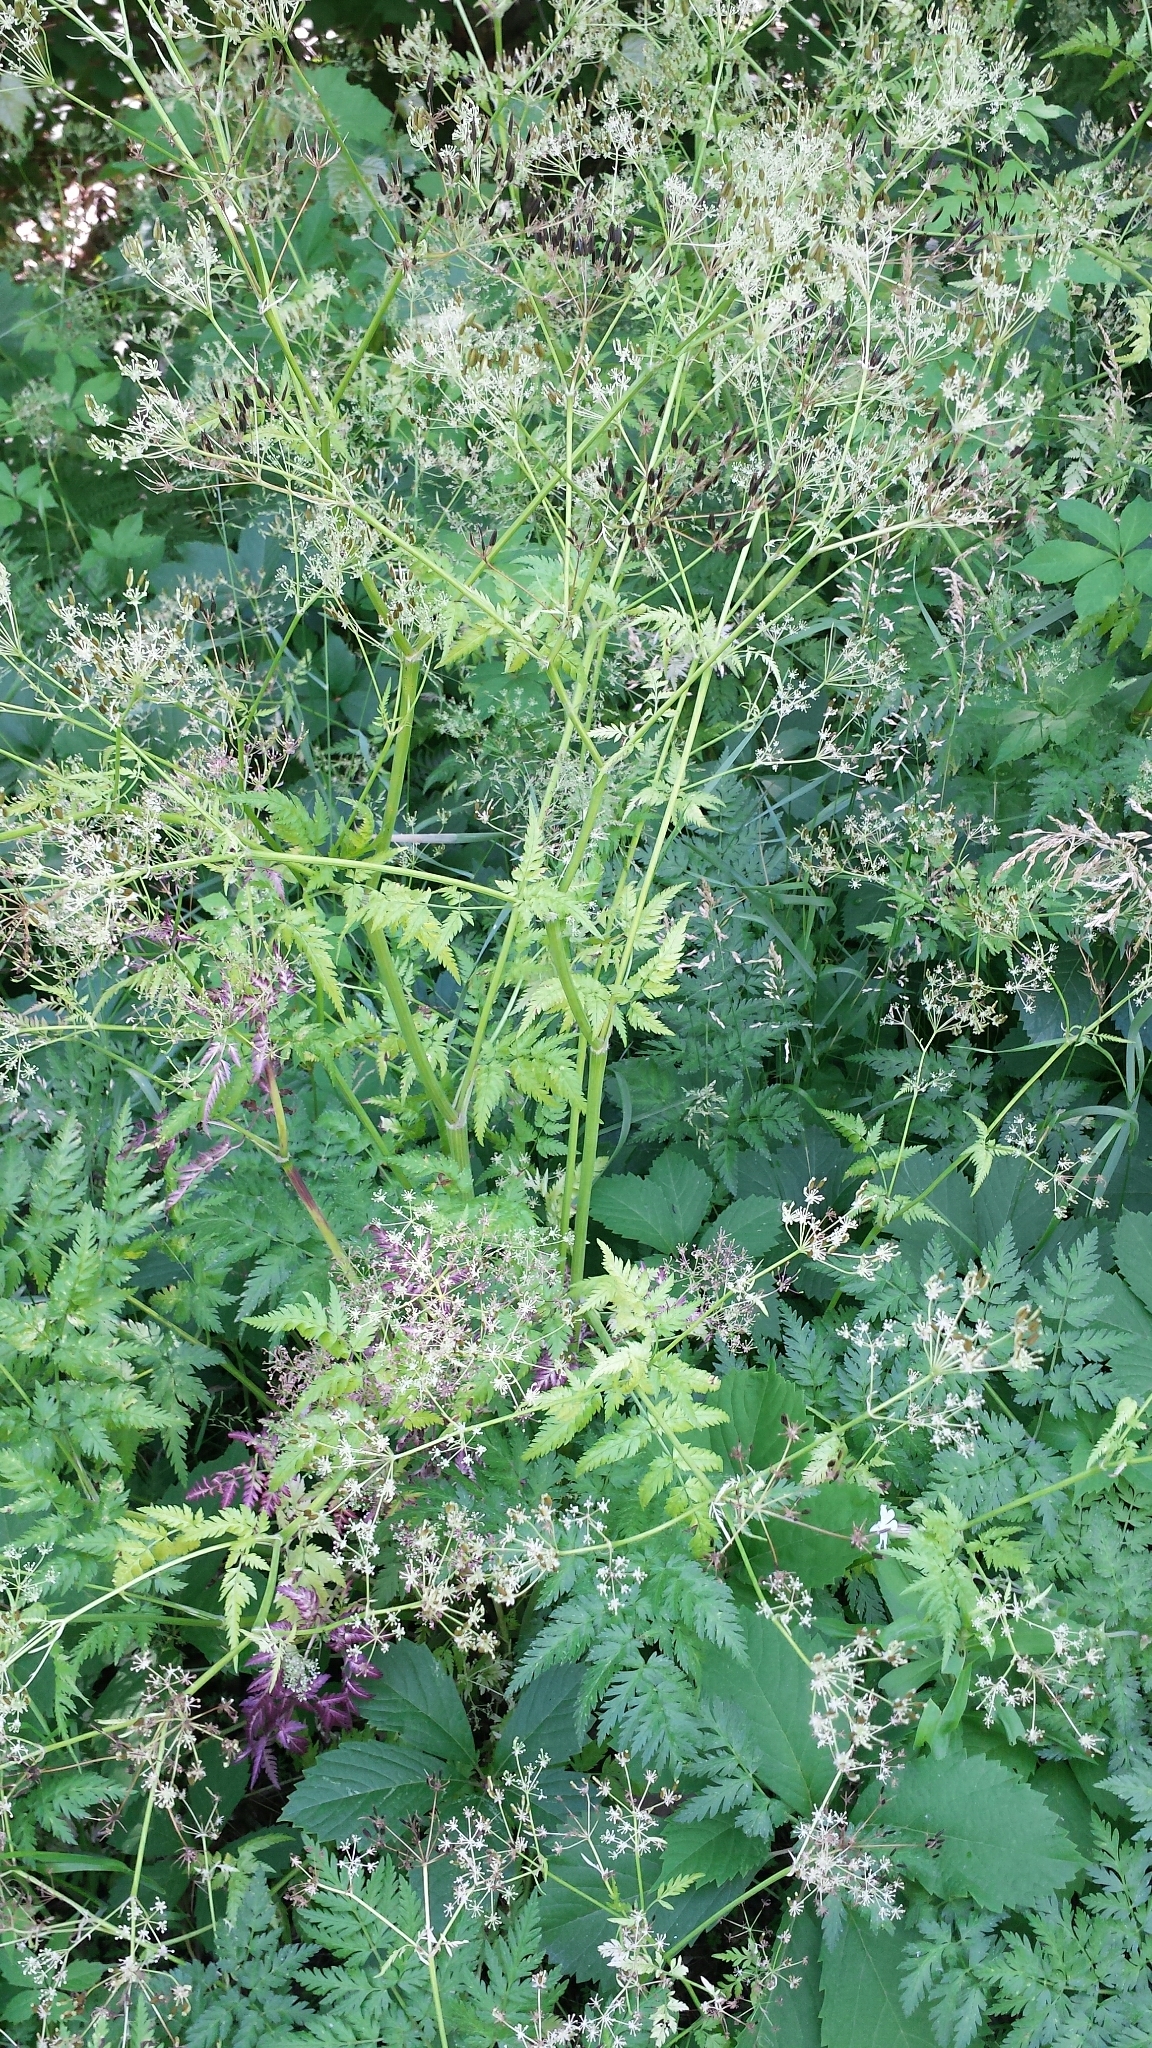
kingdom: Plantae
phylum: Tracheophyta
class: Magnoliopsida
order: Apiales
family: Apiaceae
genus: Anthriscus
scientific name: Anthriscus sylvestris
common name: Cow parsley
